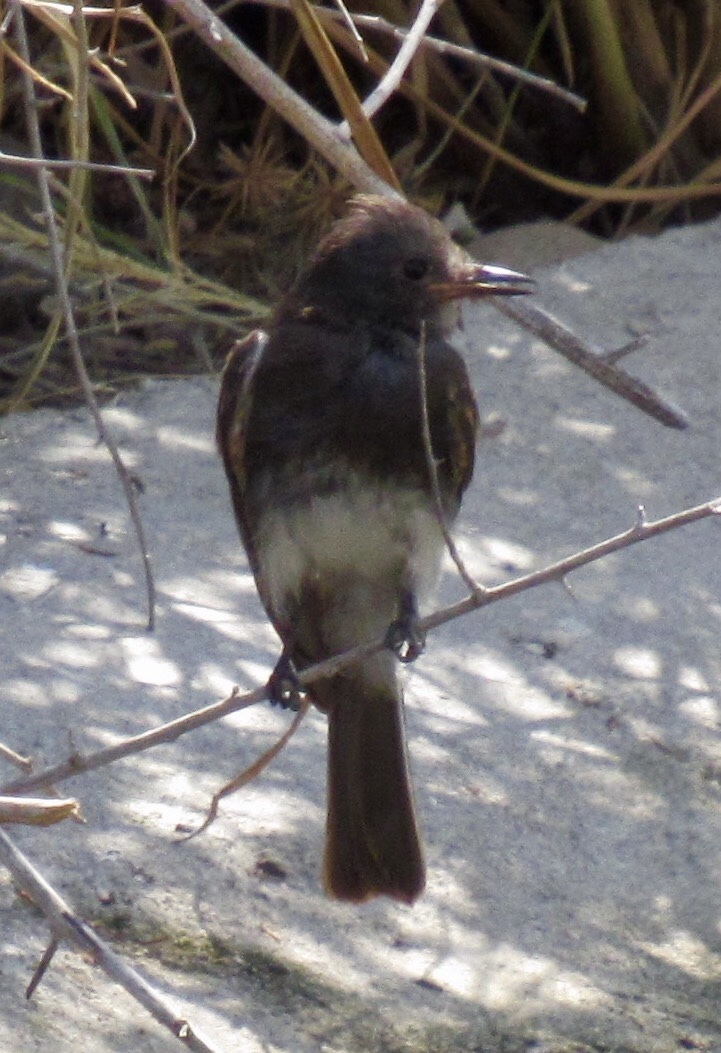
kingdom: Animalia
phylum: Chordata
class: Aves
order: Passeriformes
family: Tyrannidae
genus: Sayornis
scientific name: Sayornis nigricans
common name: Black phoebe
